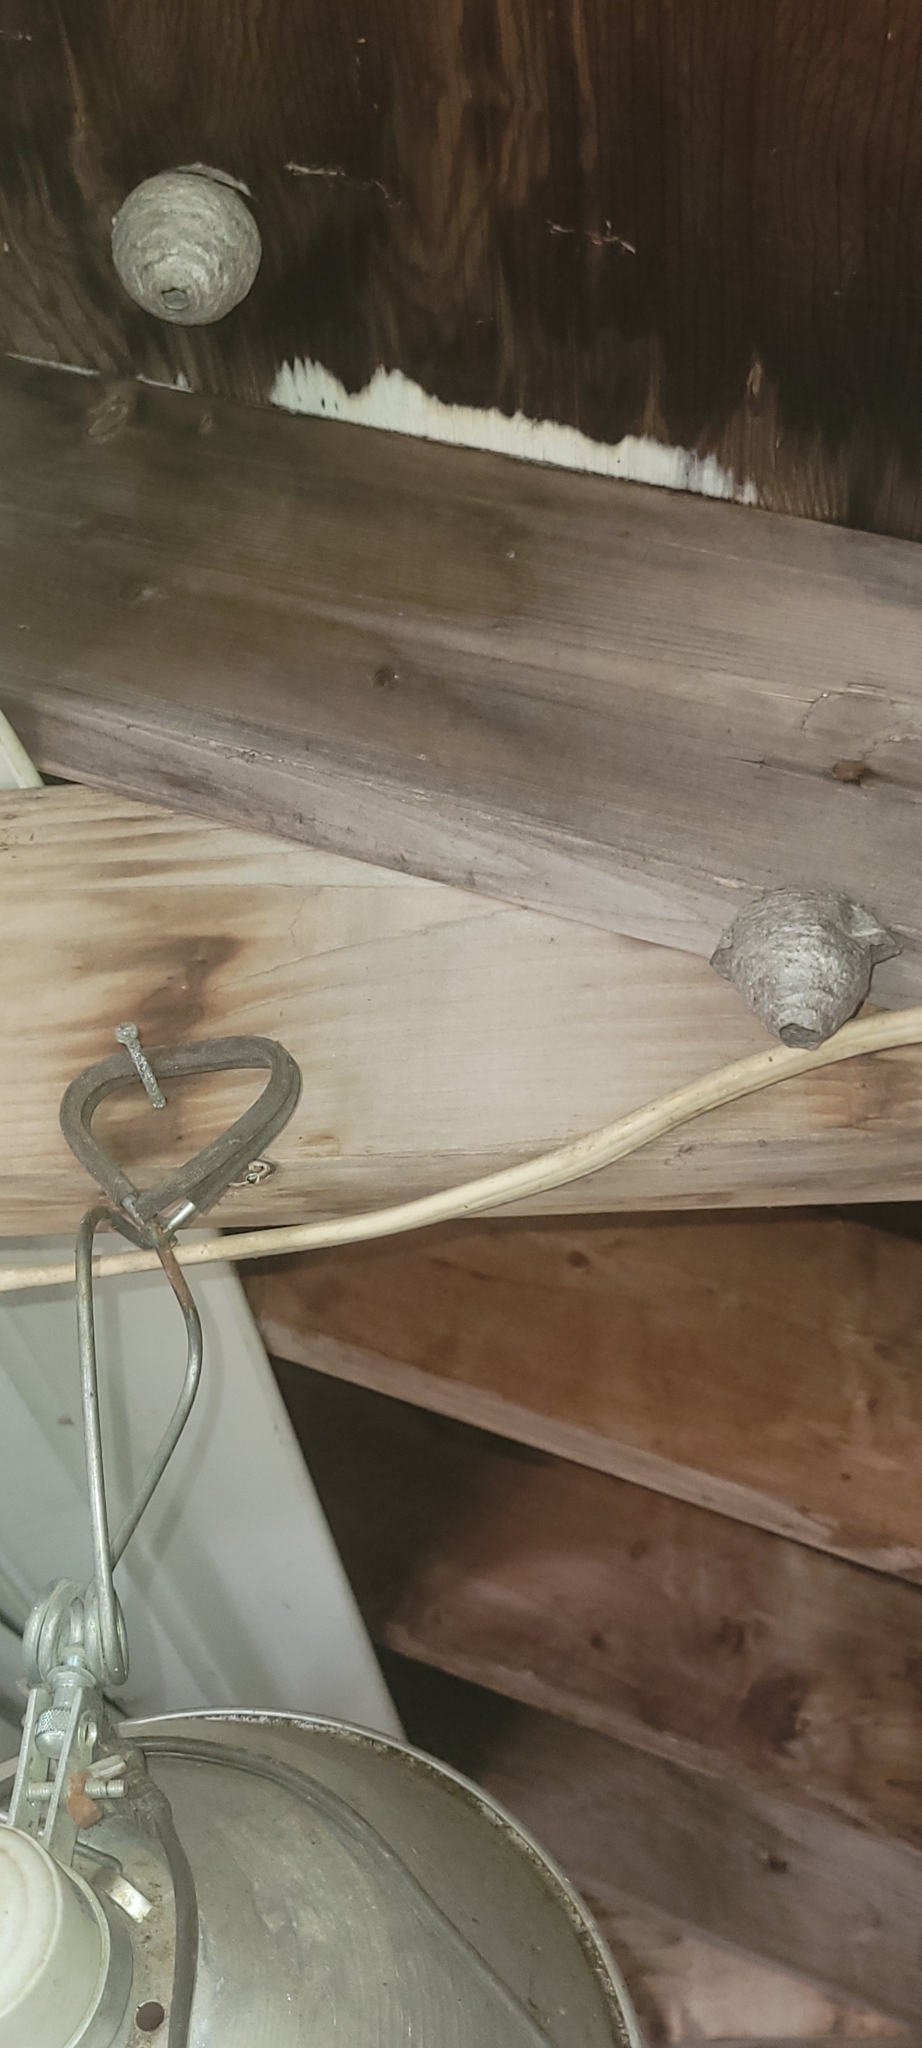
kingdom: Animalia
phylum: Arthropoda
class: Insecta
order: Hymenoptera
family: Vespidae
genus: Dolichovespula
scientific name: Dolichovespula
